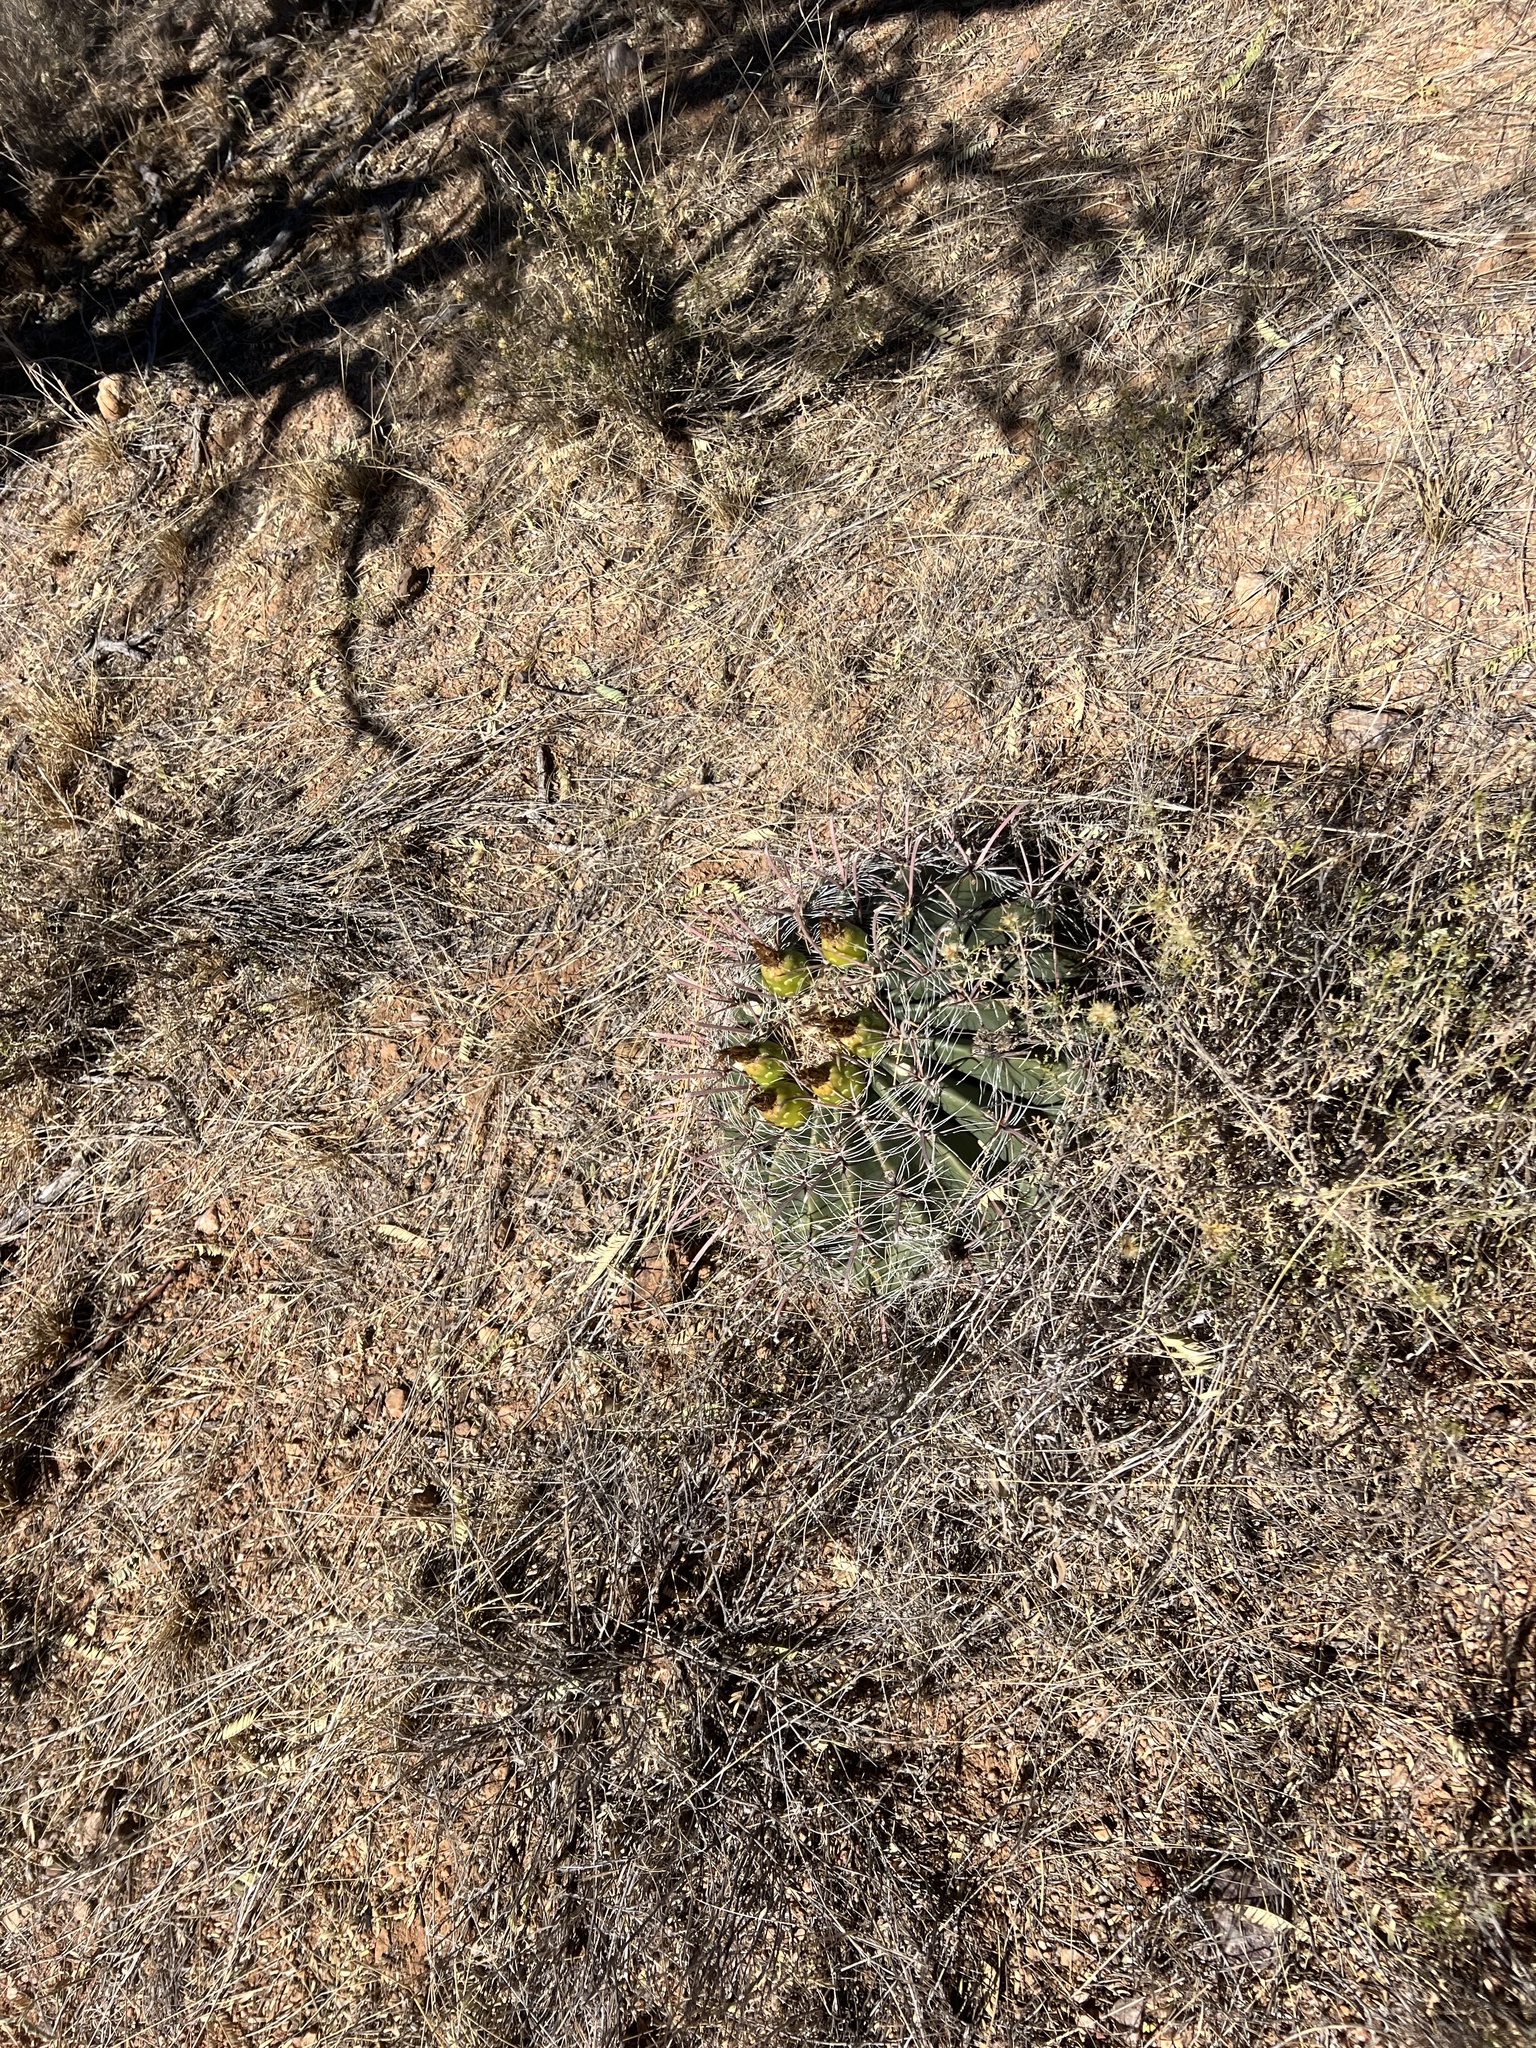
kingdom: Plantae
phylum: Tracheophyta
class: Magnoliopsida
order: Caryophyllales
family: Cactaceae
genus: Ferocactus
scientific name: Ferocactus wislizeni
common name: Candy barrel cactus
